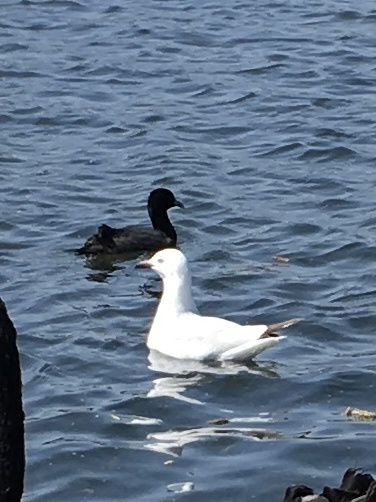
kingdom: Animalia
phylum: Chordata
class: Aves
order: Charadriiformes
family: Laridae
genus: Chroicocephalus
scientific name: Chroicocephalus novaehollandiae
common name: Silver gull
